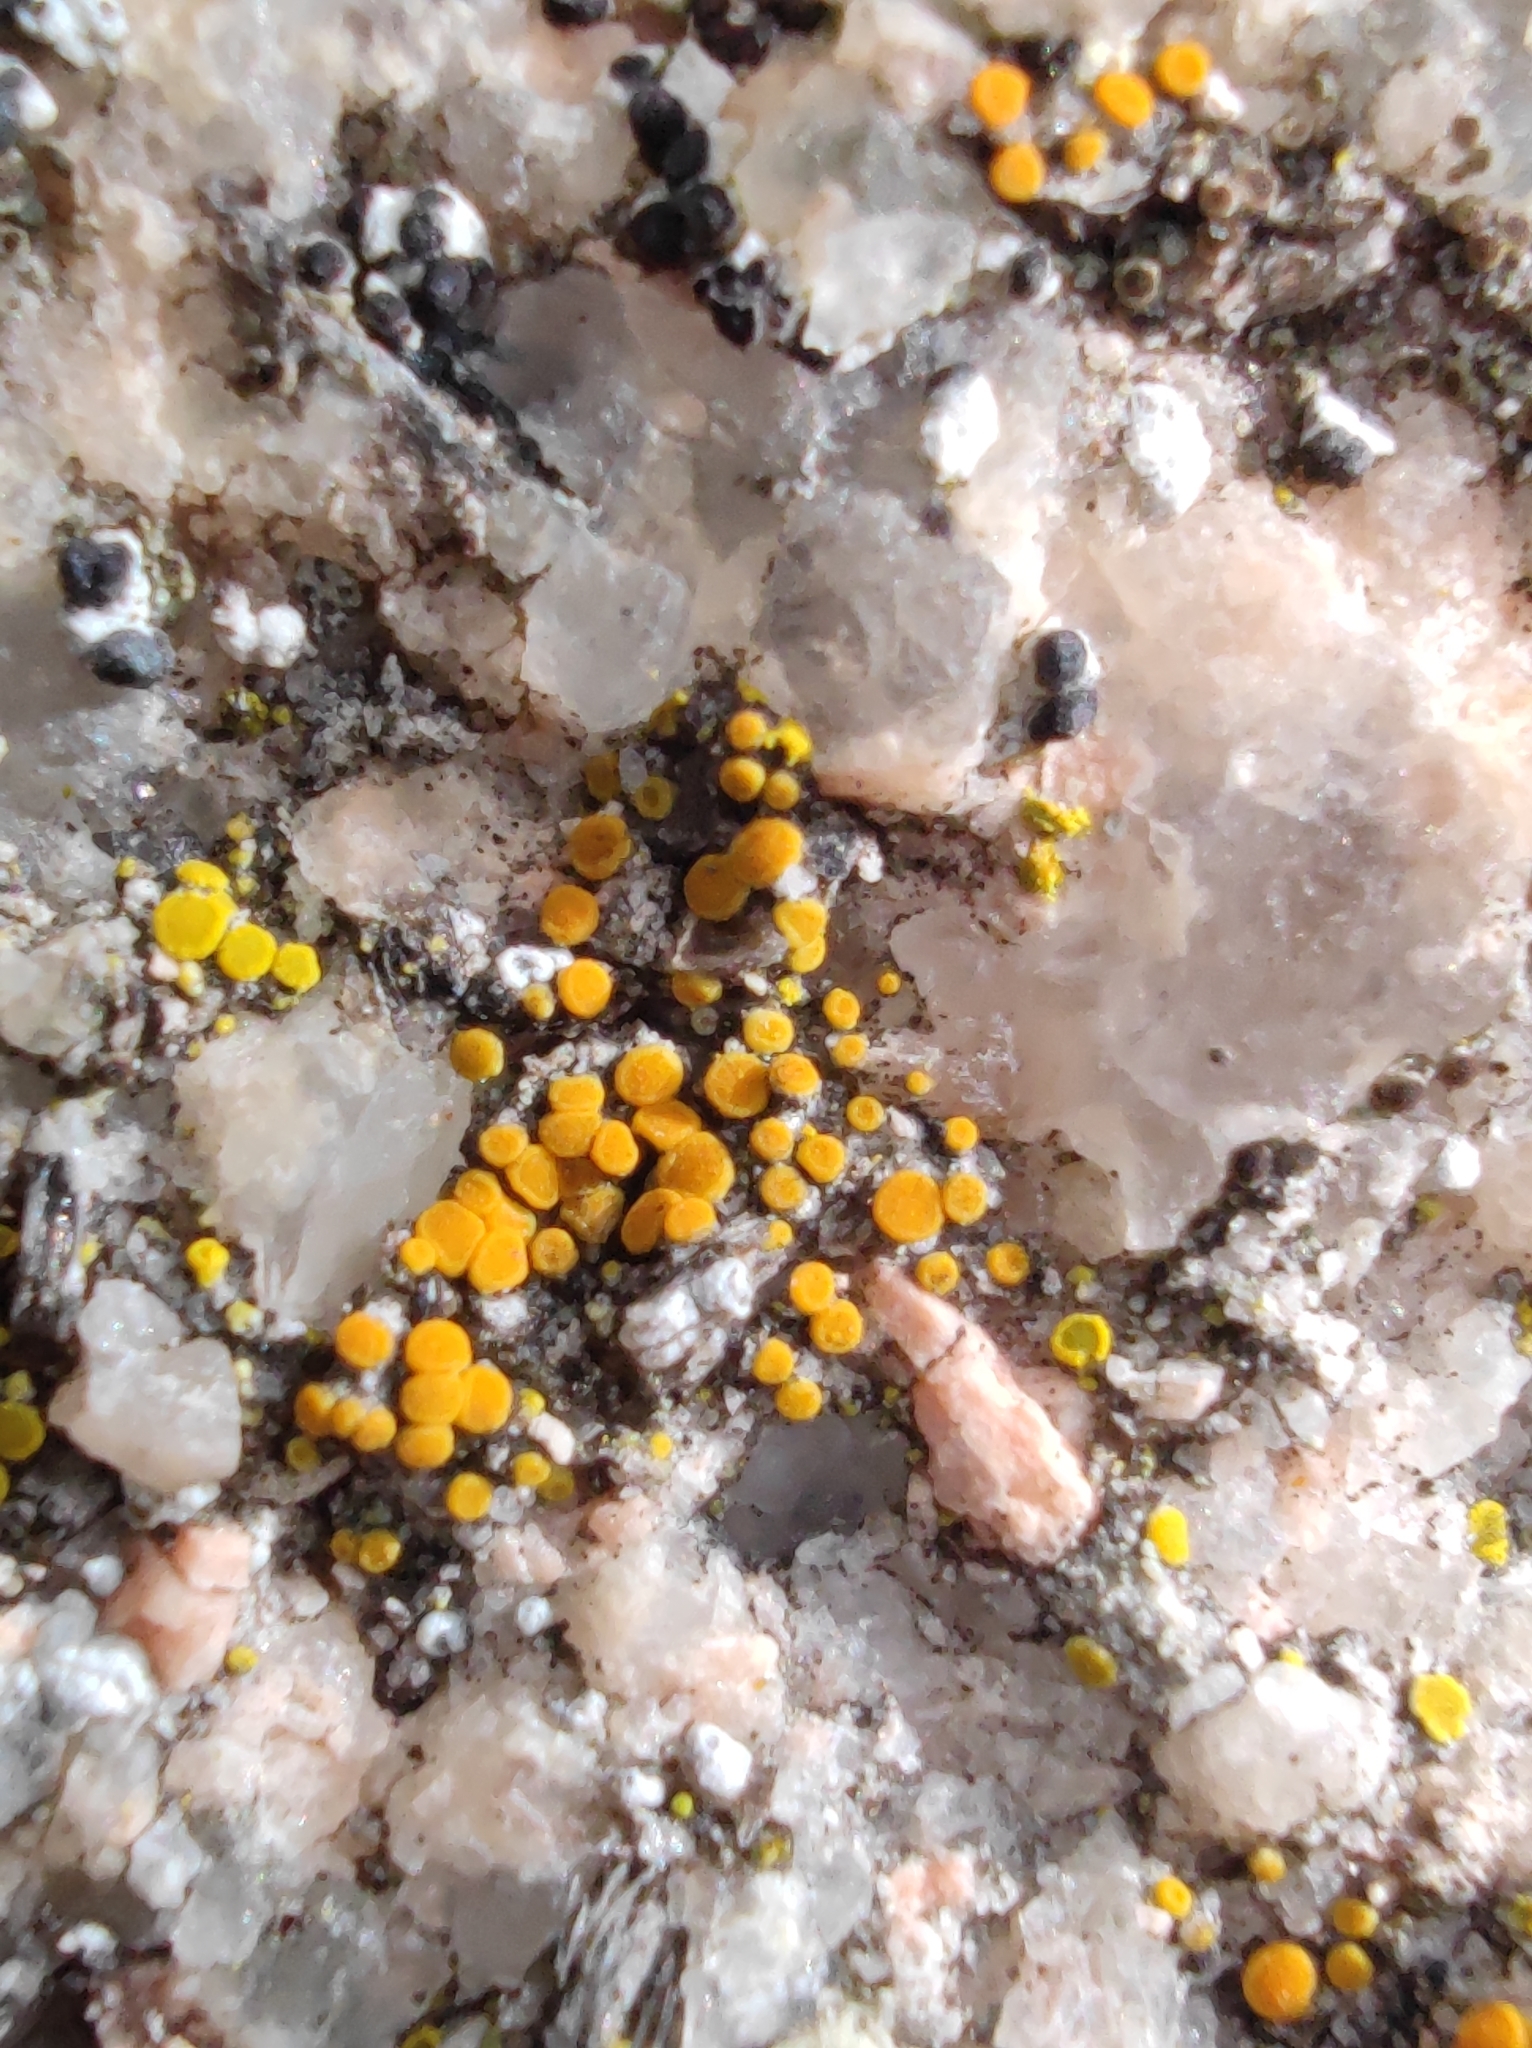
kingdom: Fungi
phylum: Ascomycota
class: Candelariomycetes
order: Candelariales
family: Candelariaceae
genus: Candelariella
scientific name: Candelariella aurella
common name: Hidden goldspeck lichen
